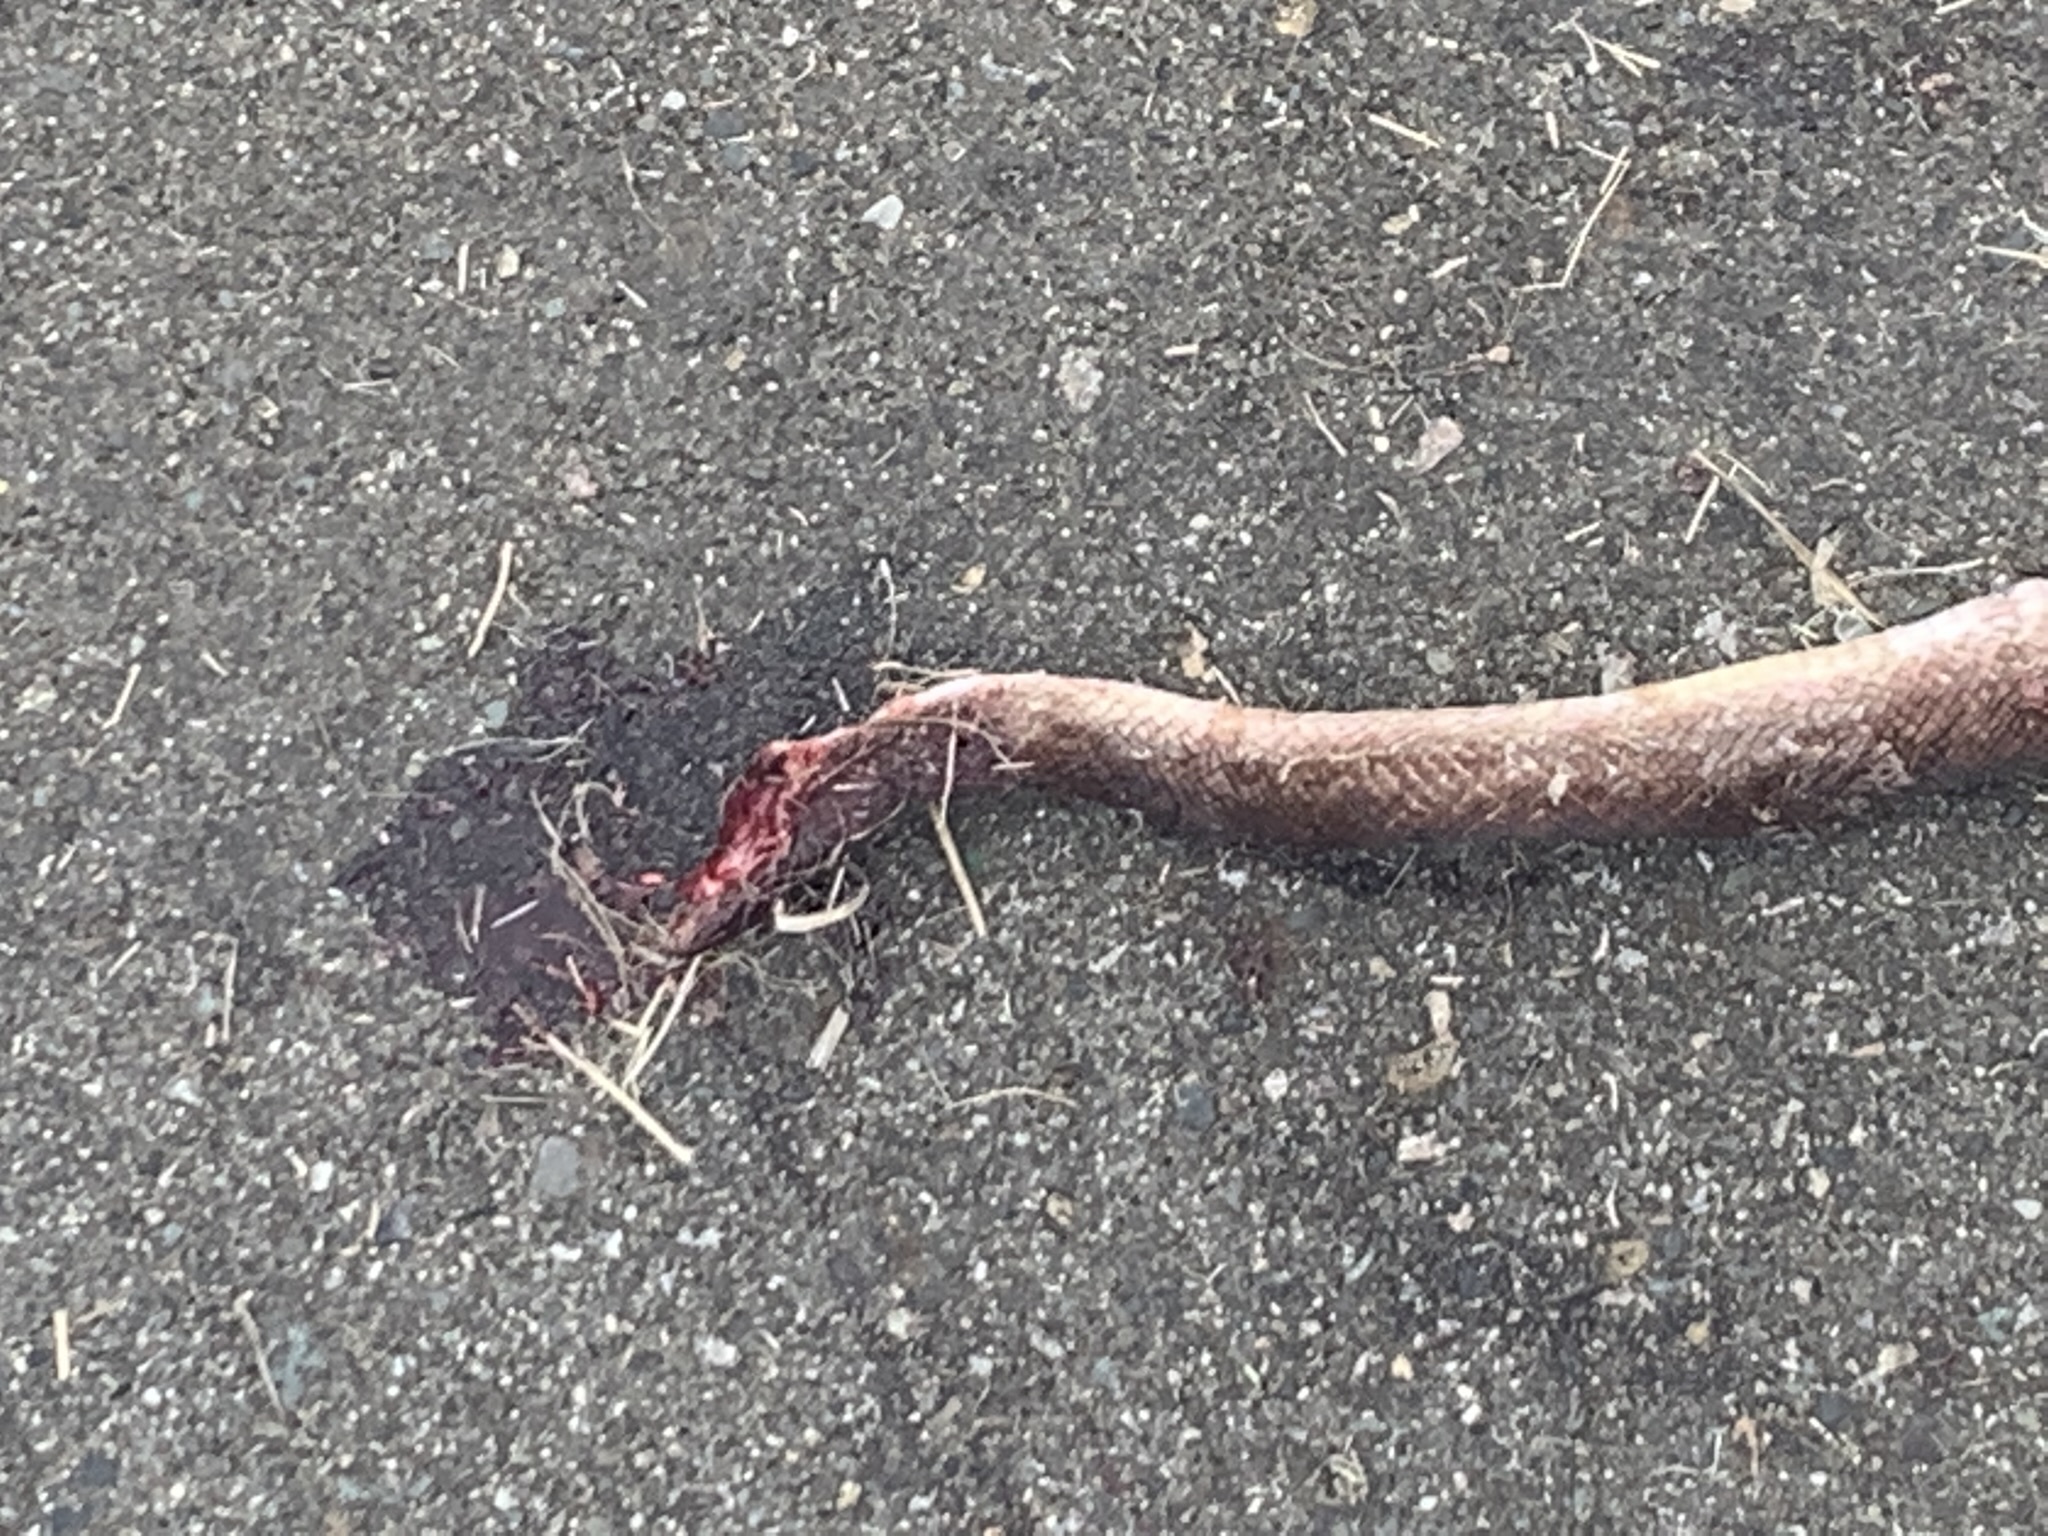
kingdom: Animalia
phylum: Chordata
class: Squamata
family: Boidae
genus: Epicrates
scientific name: Epicrates maurus
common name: Brown rainbow boa
